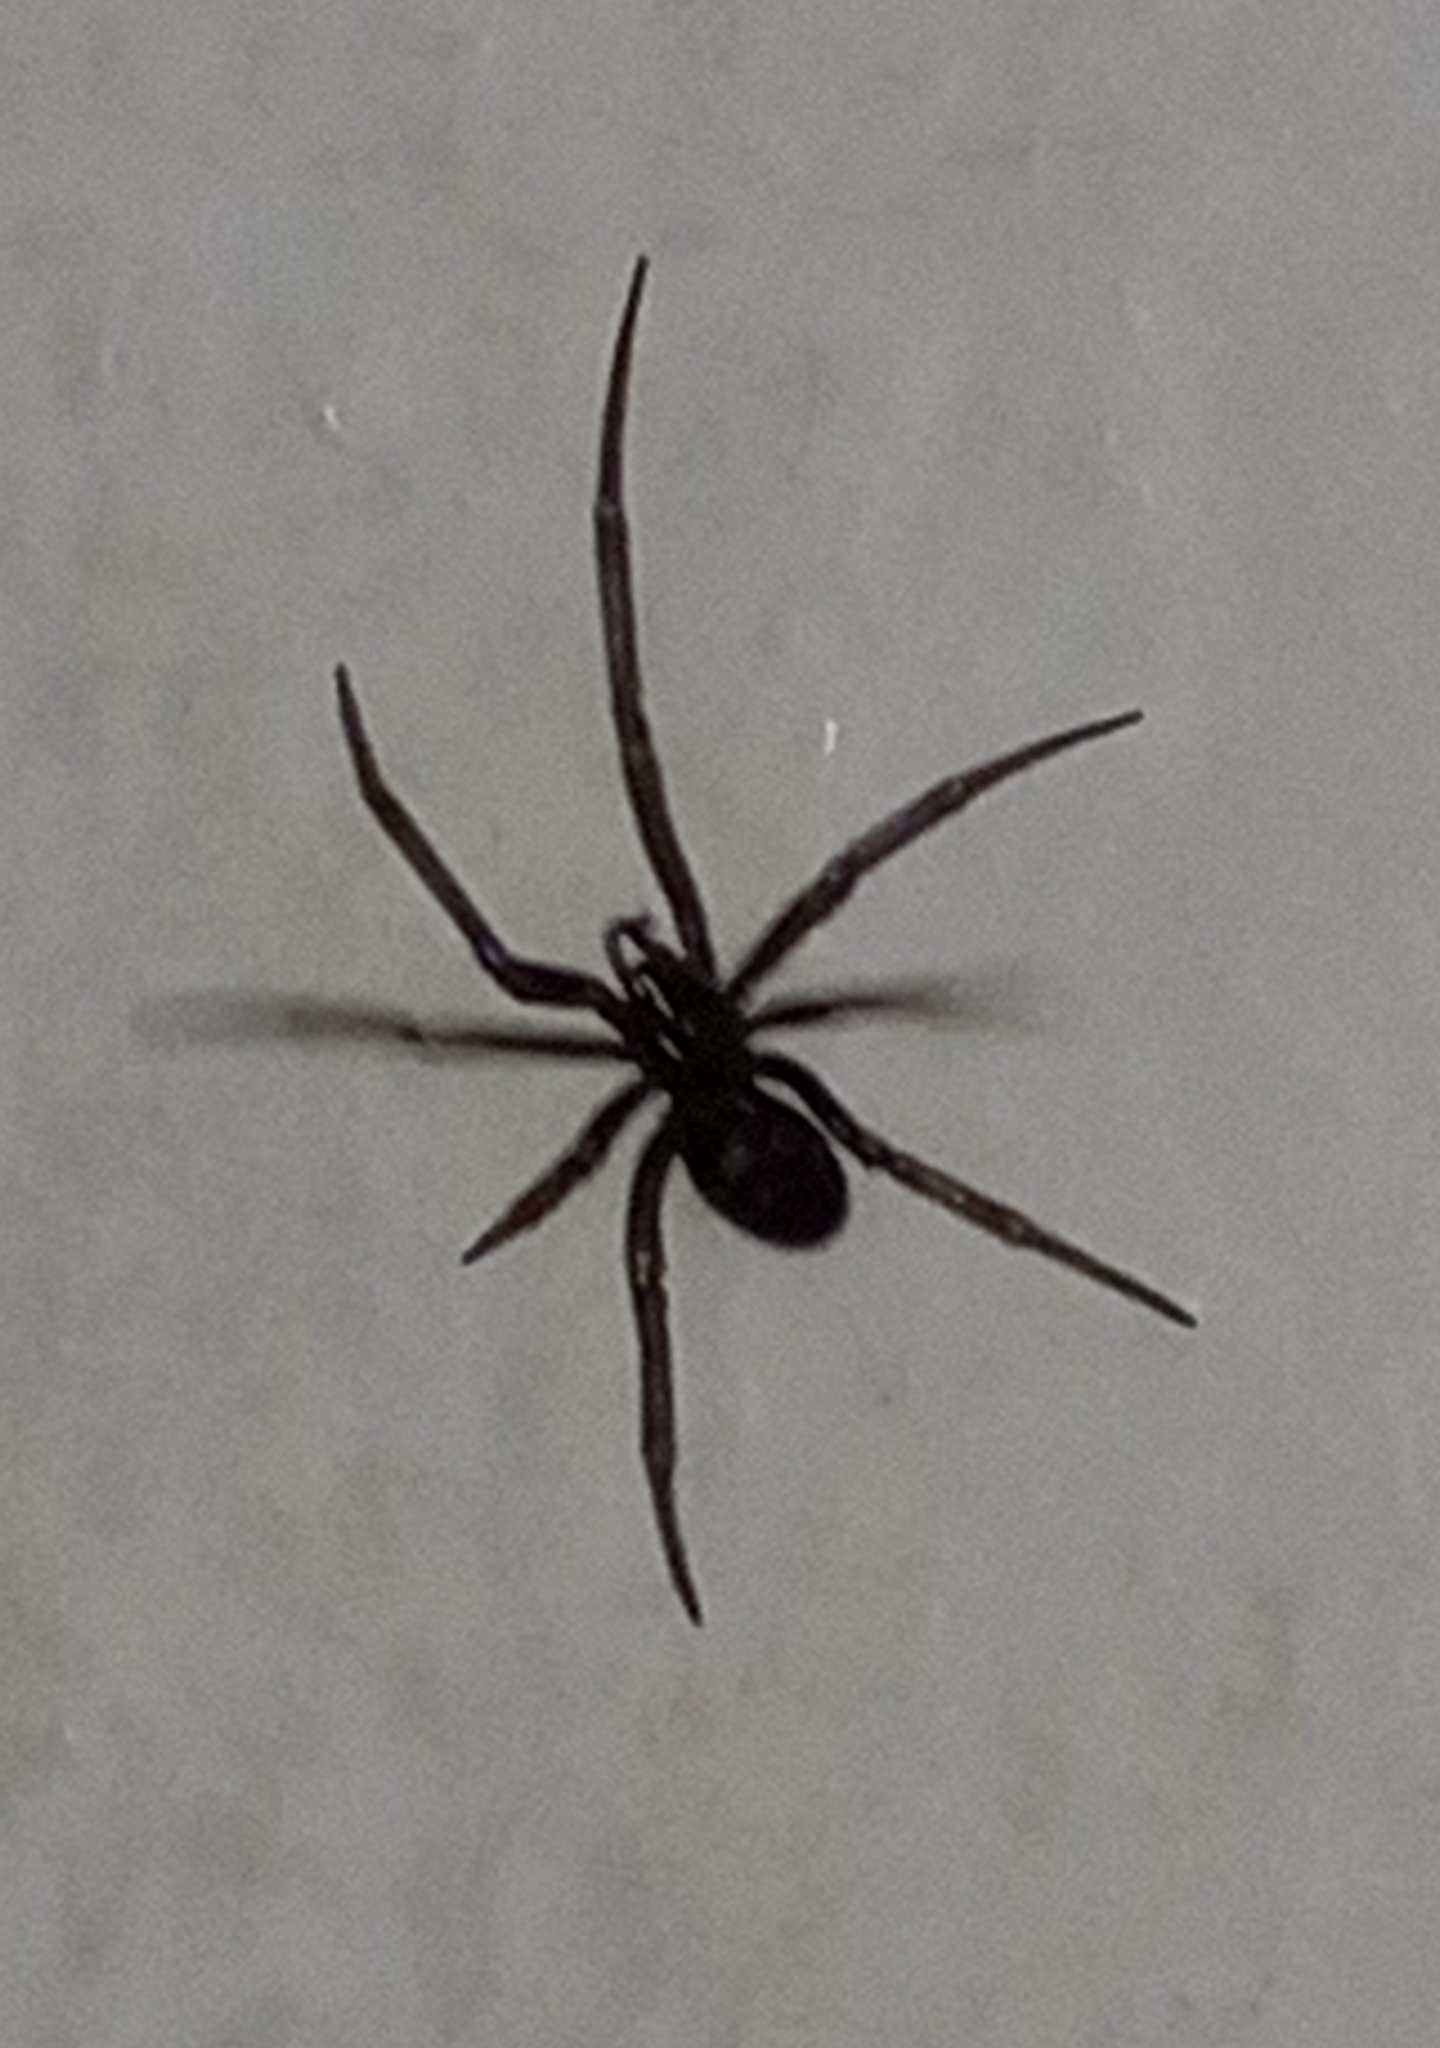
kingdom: Animalia
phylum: Arthropoda
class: Arachnida
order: Araneae
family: Theridiidae
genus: Steatoda
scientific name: Steatoda grossa
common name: False black widow
